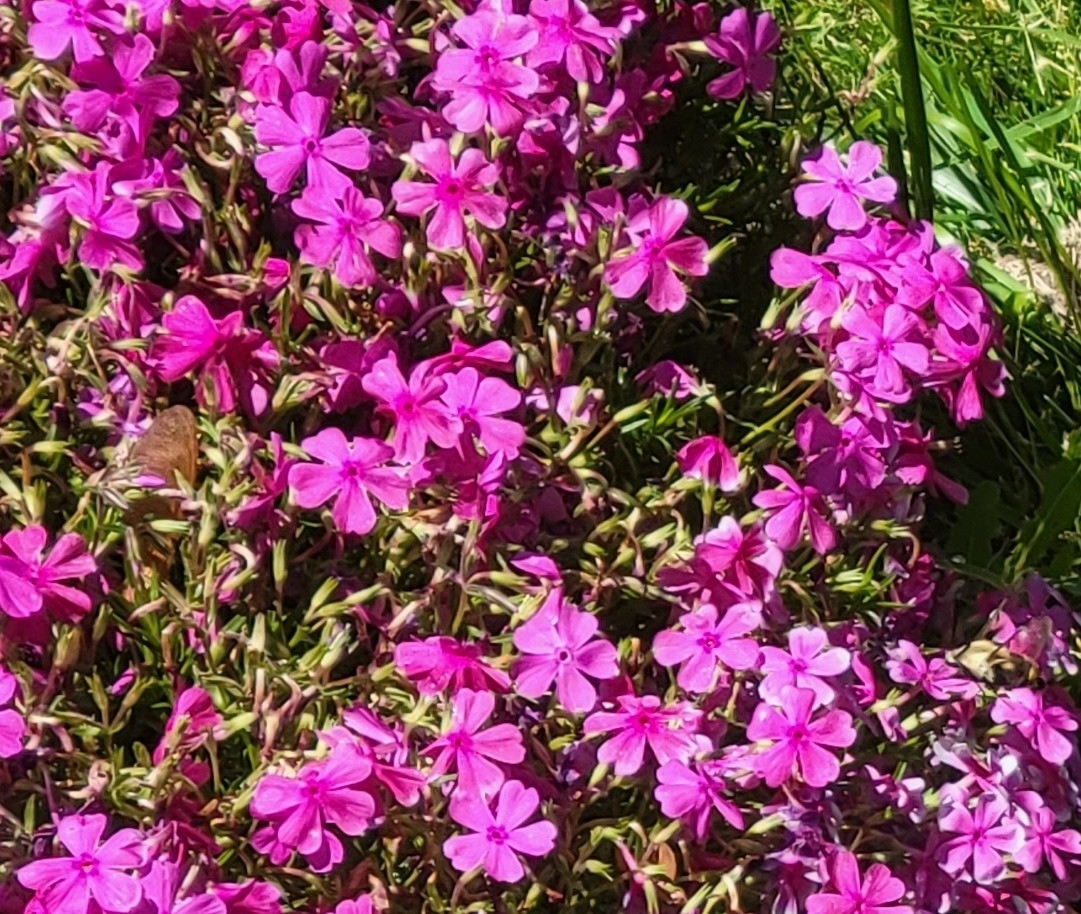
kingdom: Plantae
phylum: Tracheophyta
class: Magnoliopsida
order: Ericales
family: Polemoniaceae
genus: Phlox
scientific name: Phlox subulata
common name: Moss phlox
